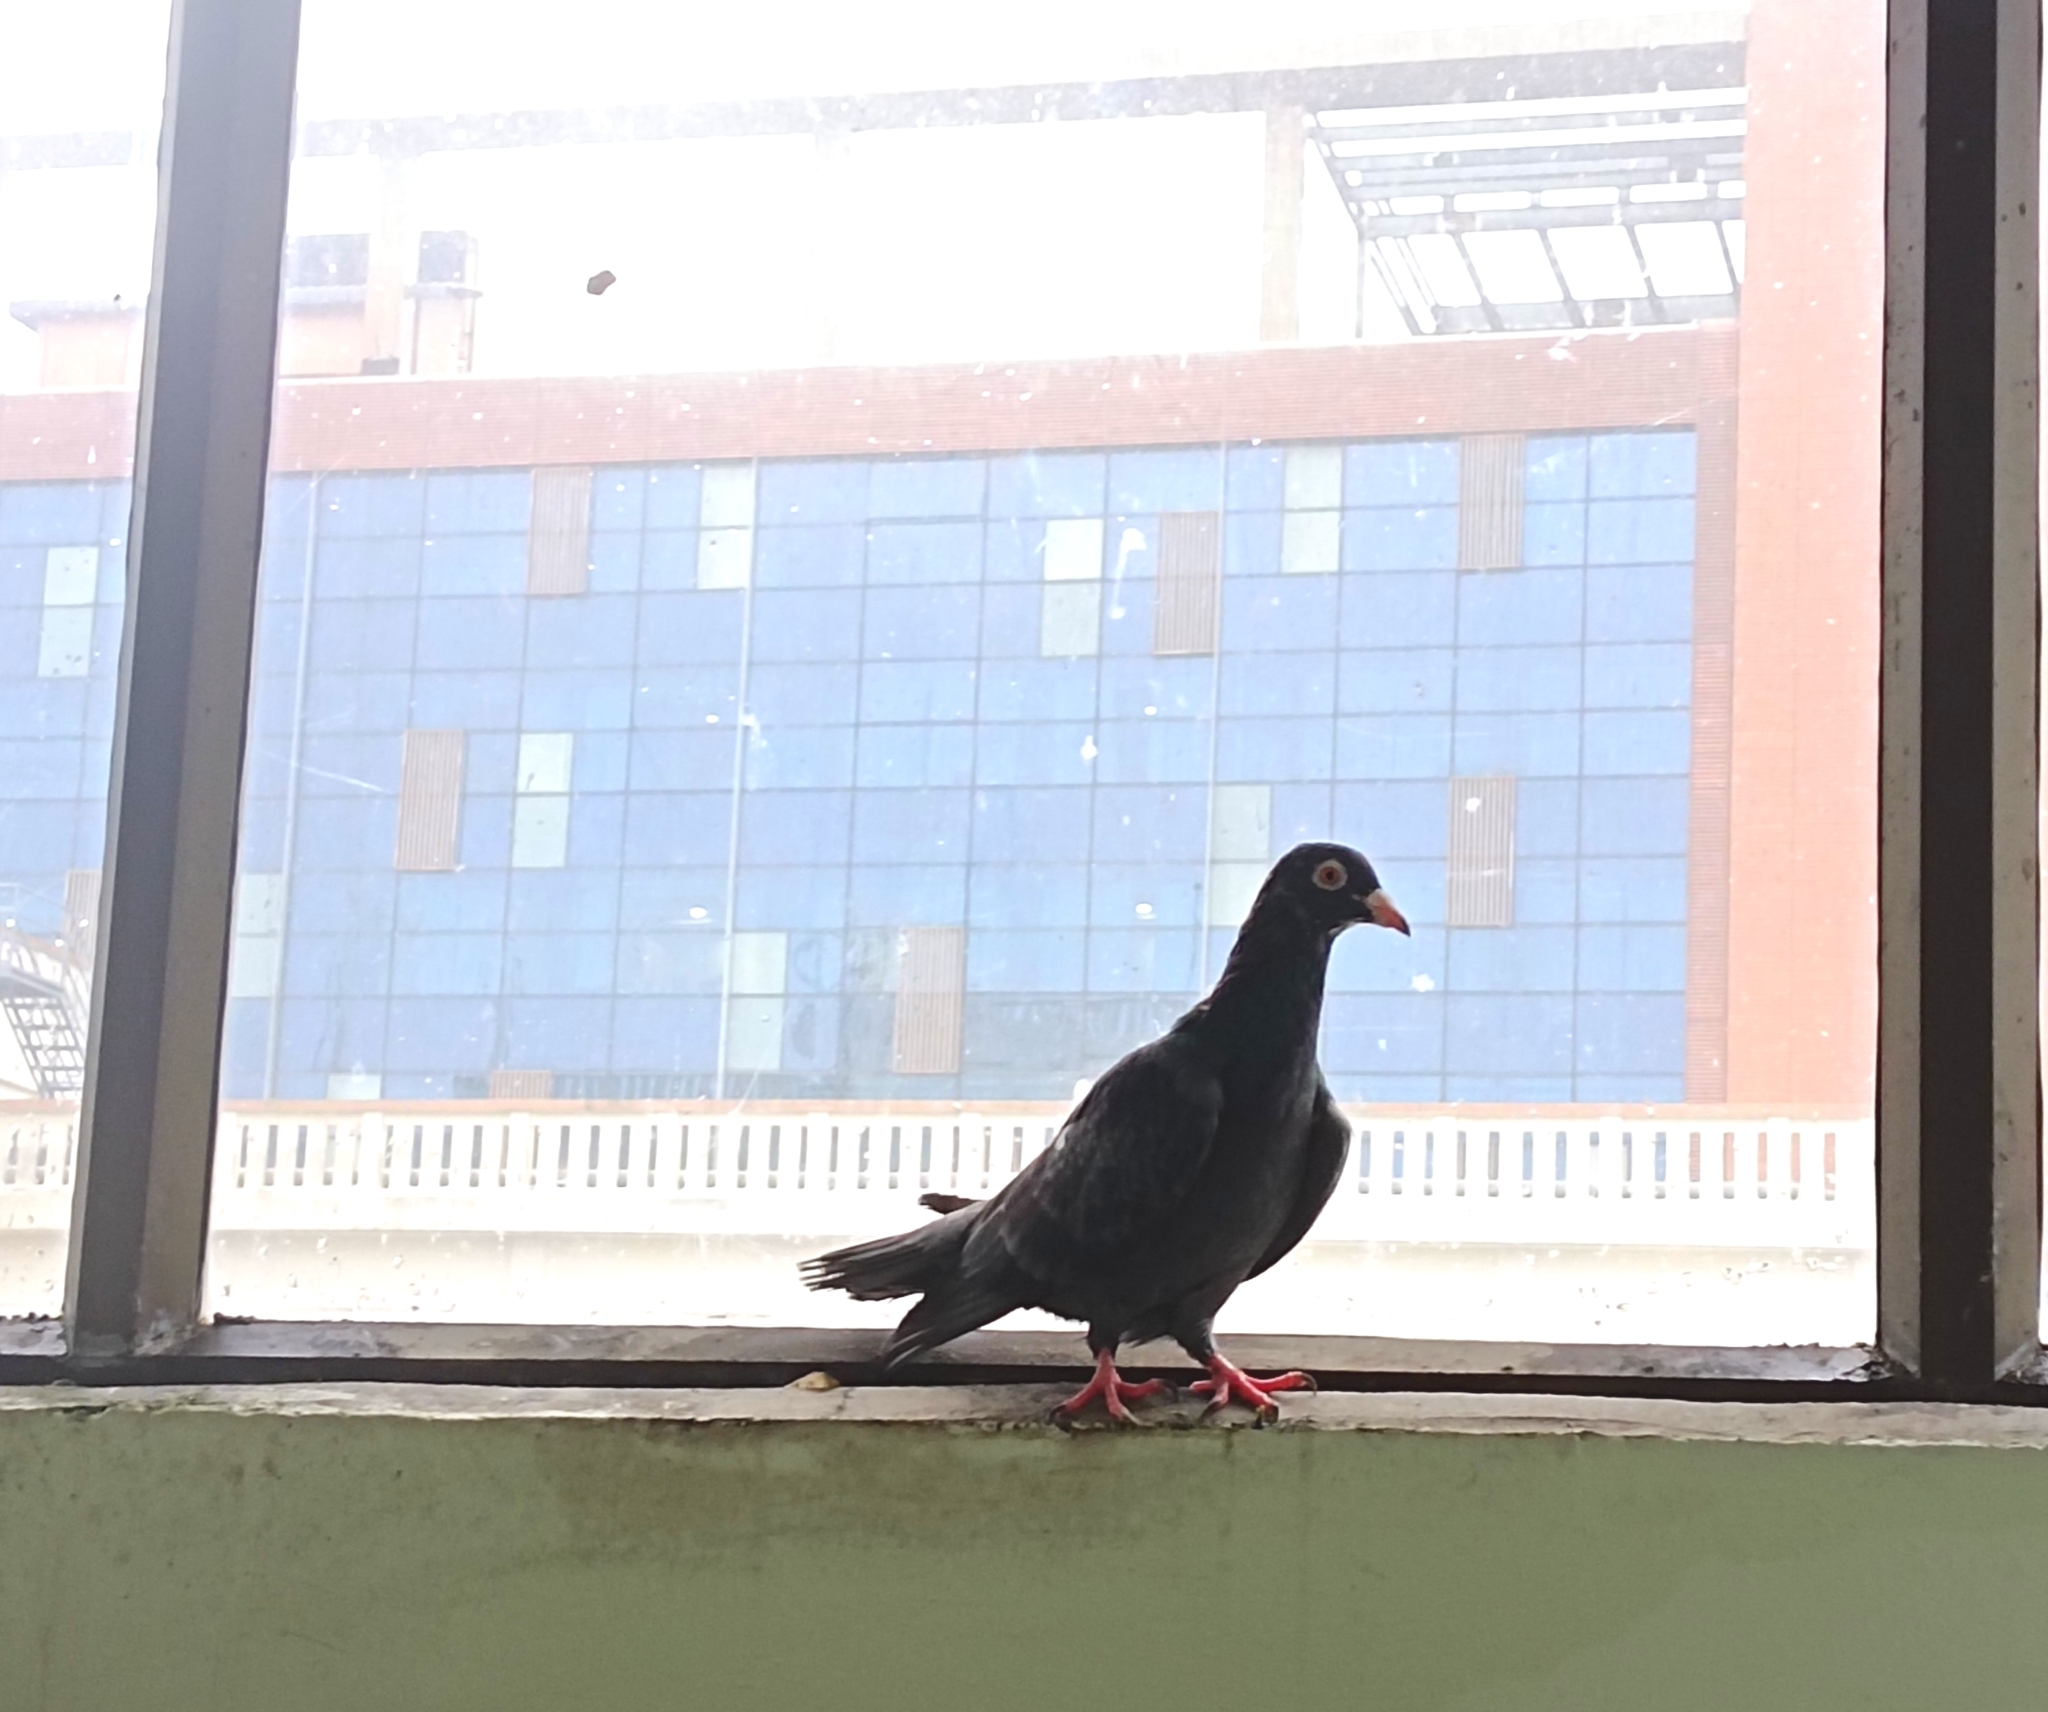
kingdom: Animalia
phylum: Chordata
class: Aves
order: Columbiformes
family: Columbidae
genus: Columba
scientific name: Columba livia
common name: Rock pigeon
